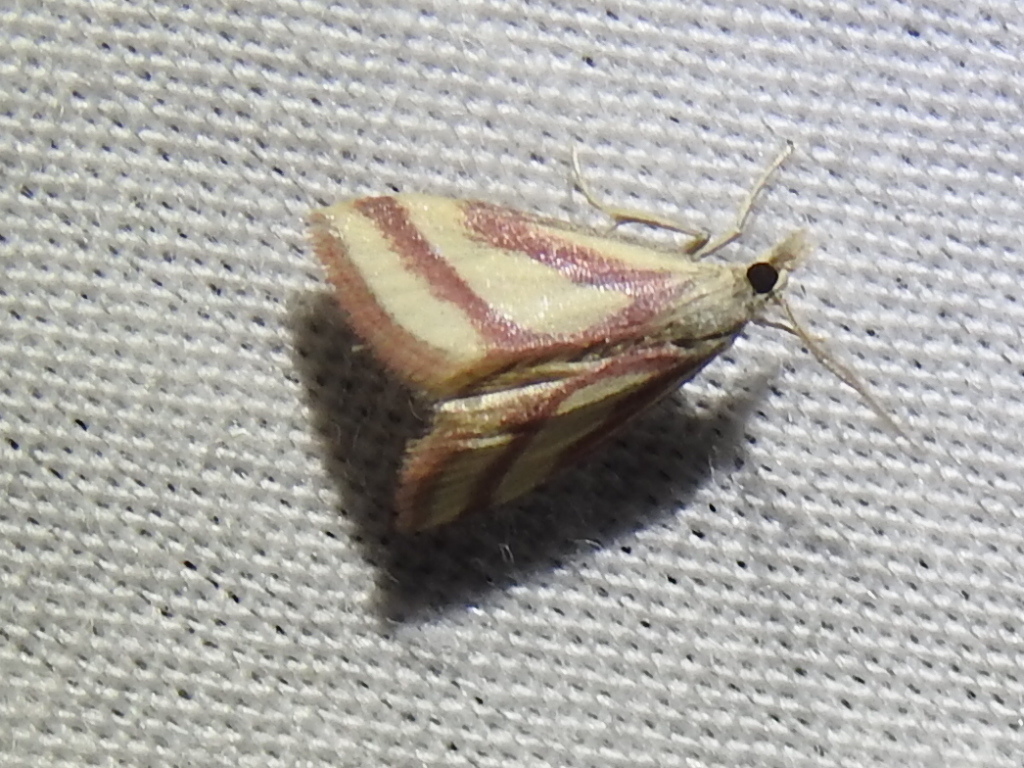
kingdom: Animalia
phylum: Arthropoda
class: Insecta
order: Lepidoptera
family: Crambidae
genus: Microtheoris
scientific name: Microtheoris vibicalis
